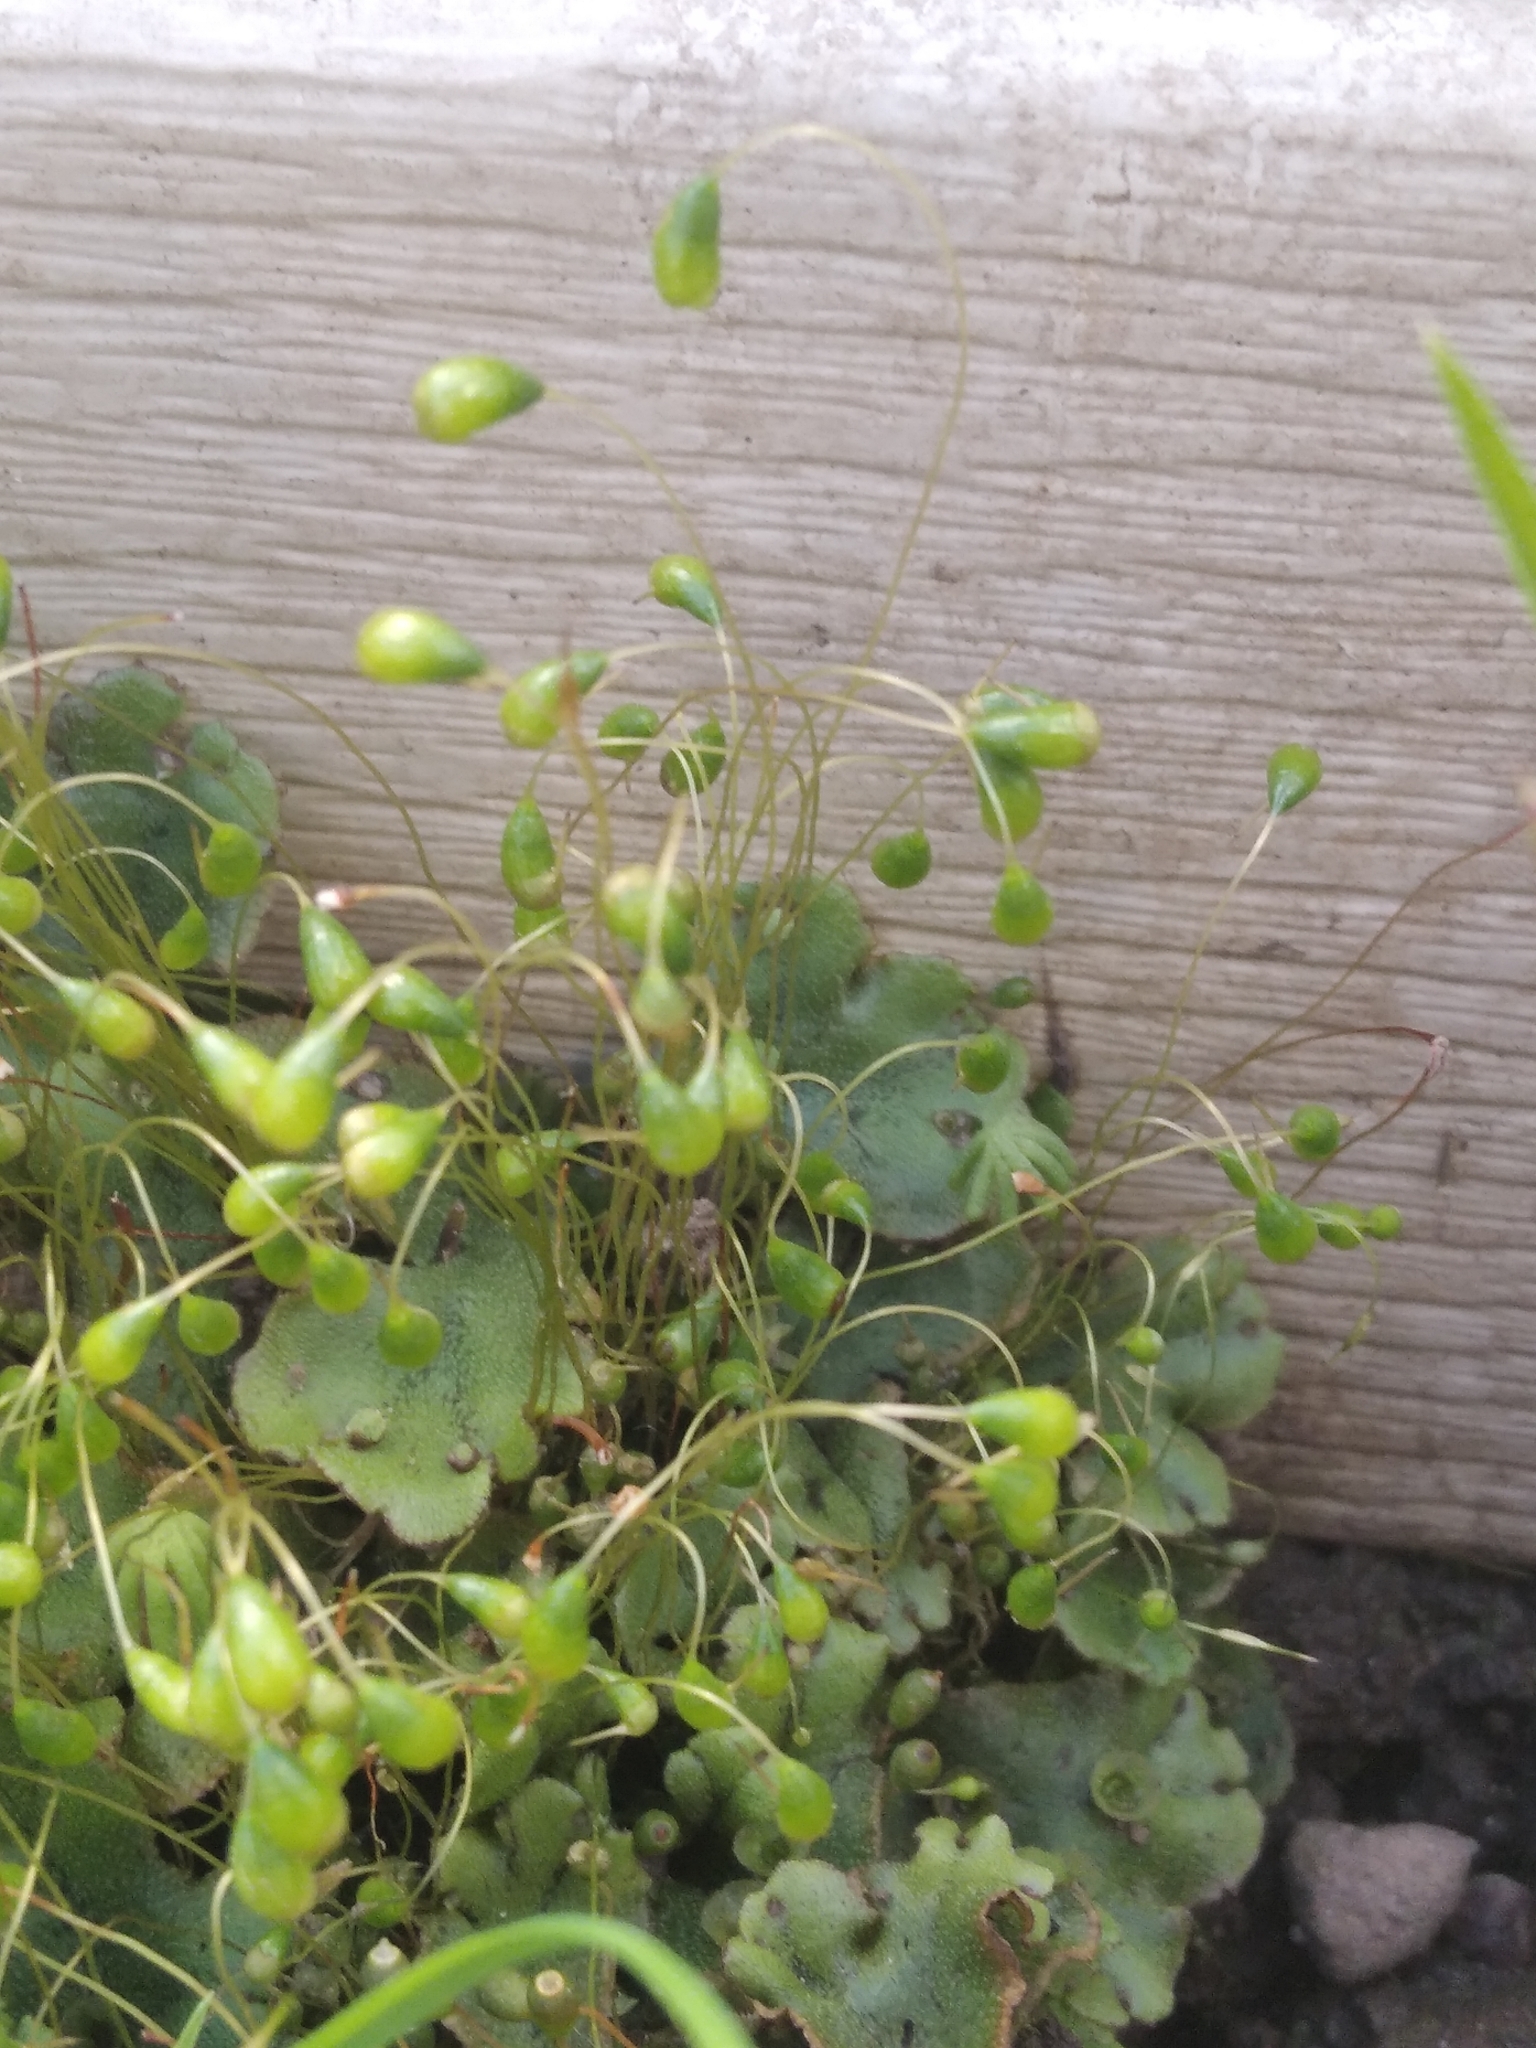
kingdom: Plantae
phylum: Bryophyta
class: Bryopsida
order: Funariales
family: Funariaceae
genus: Funaria
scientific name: Funaria hygrometrica
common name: Common cord moss
